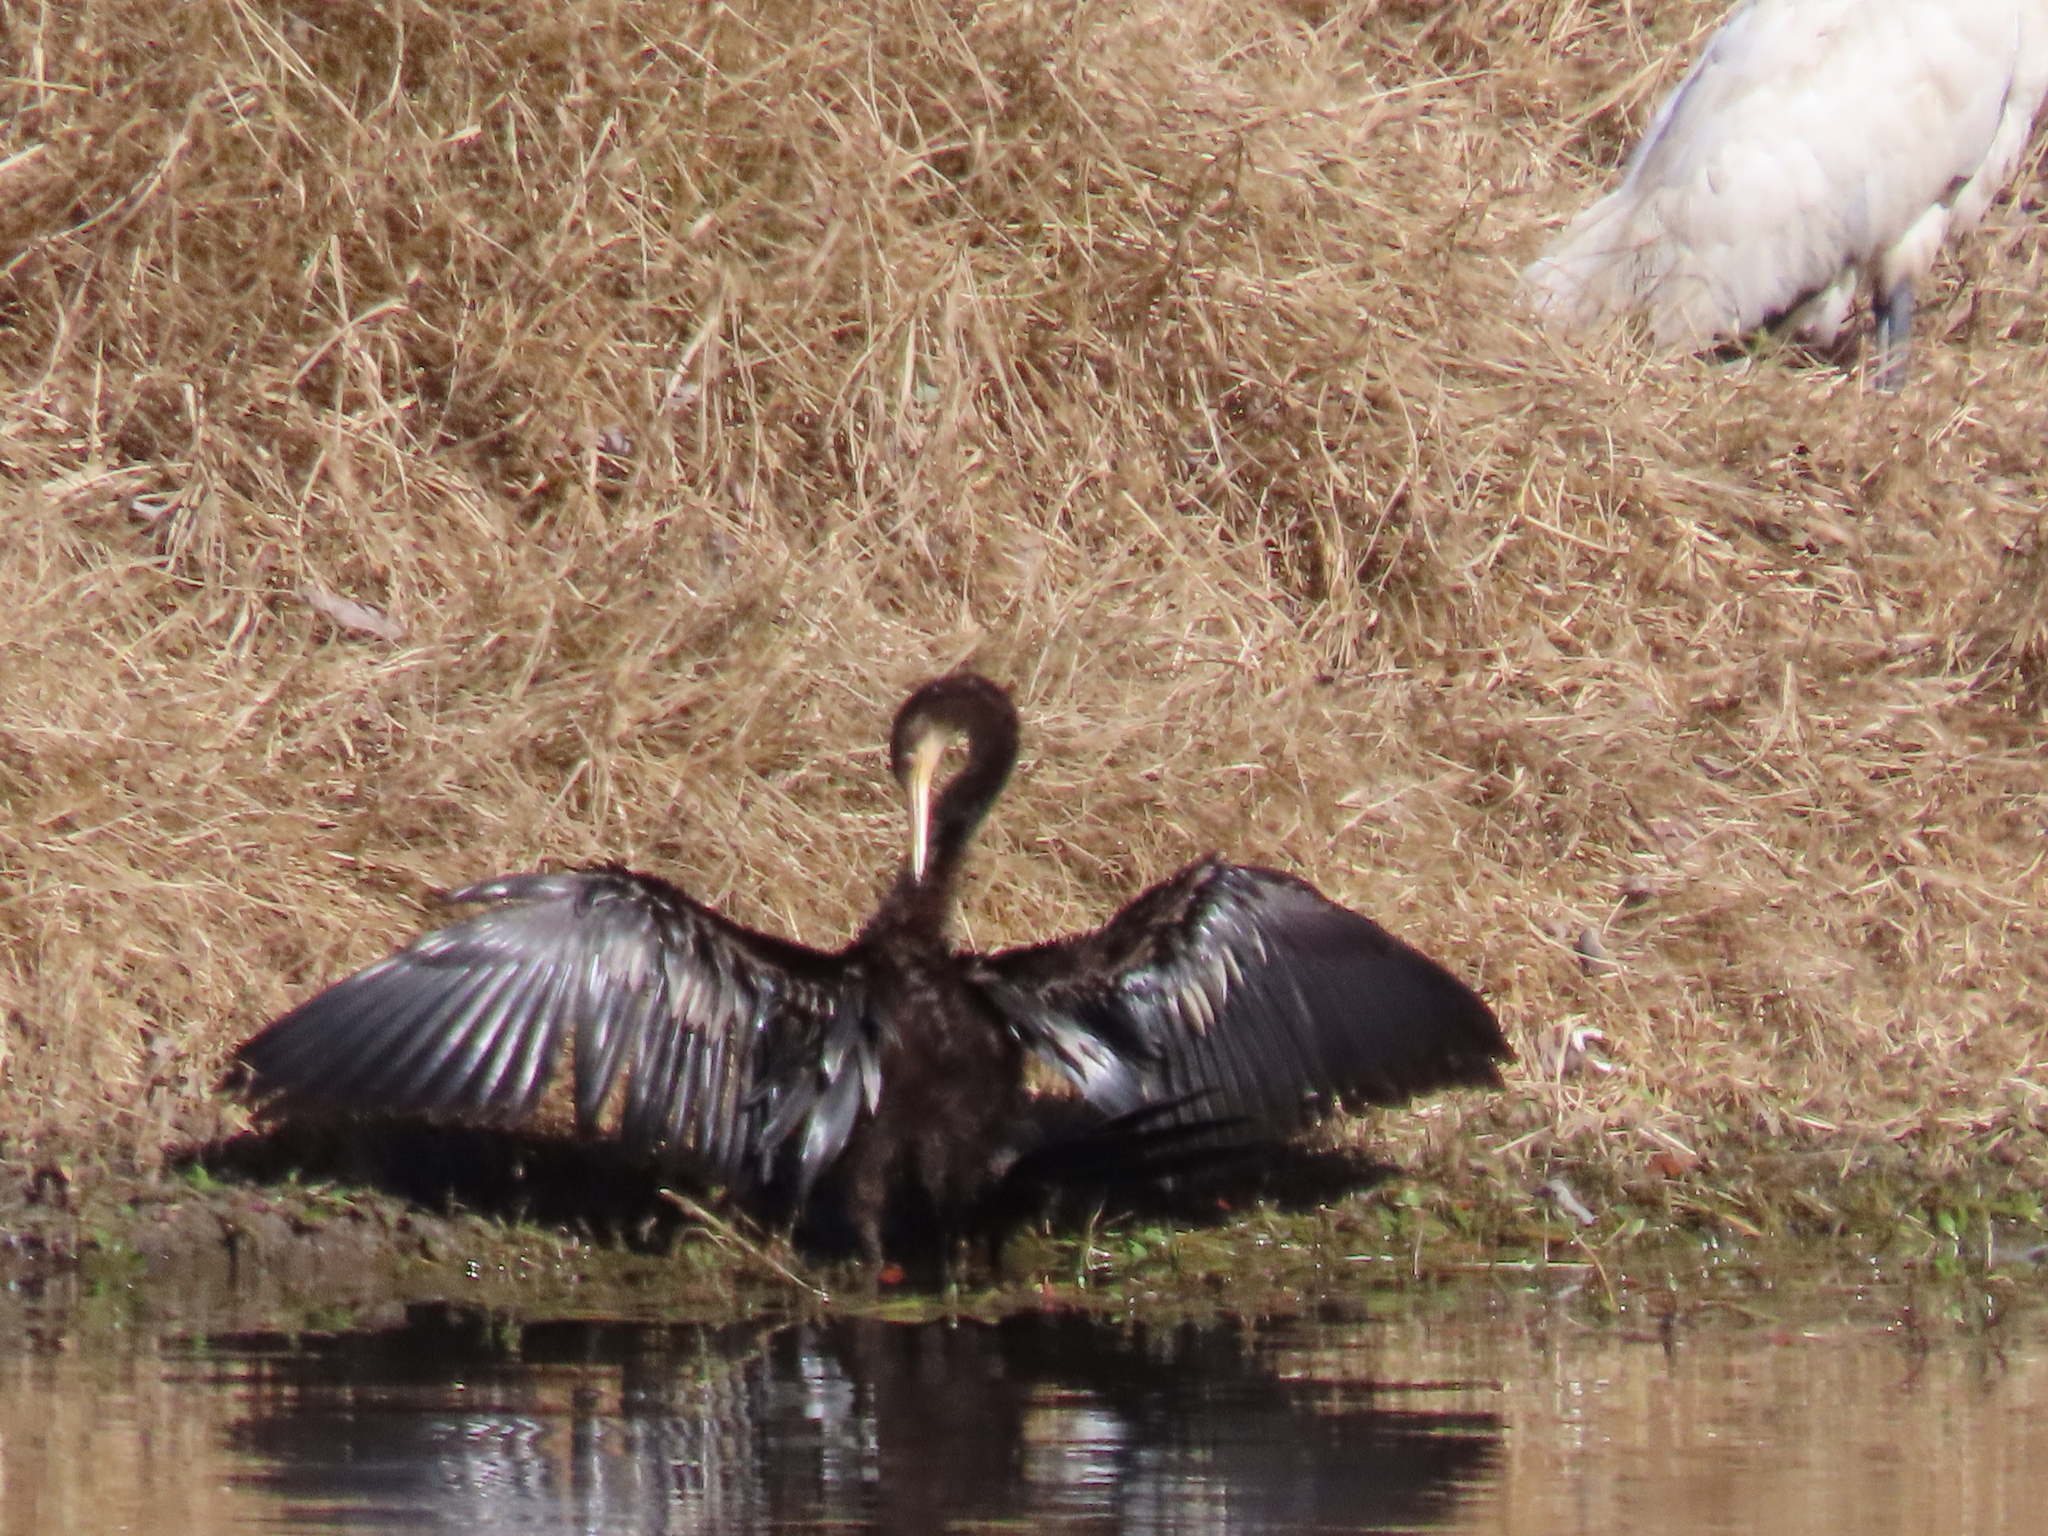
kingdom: Animalia
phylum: Chordata
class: Aves
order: Suliformes
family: Anhingidae
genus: Anhinga
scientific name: Anhinga anhinga
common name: Anhinga
